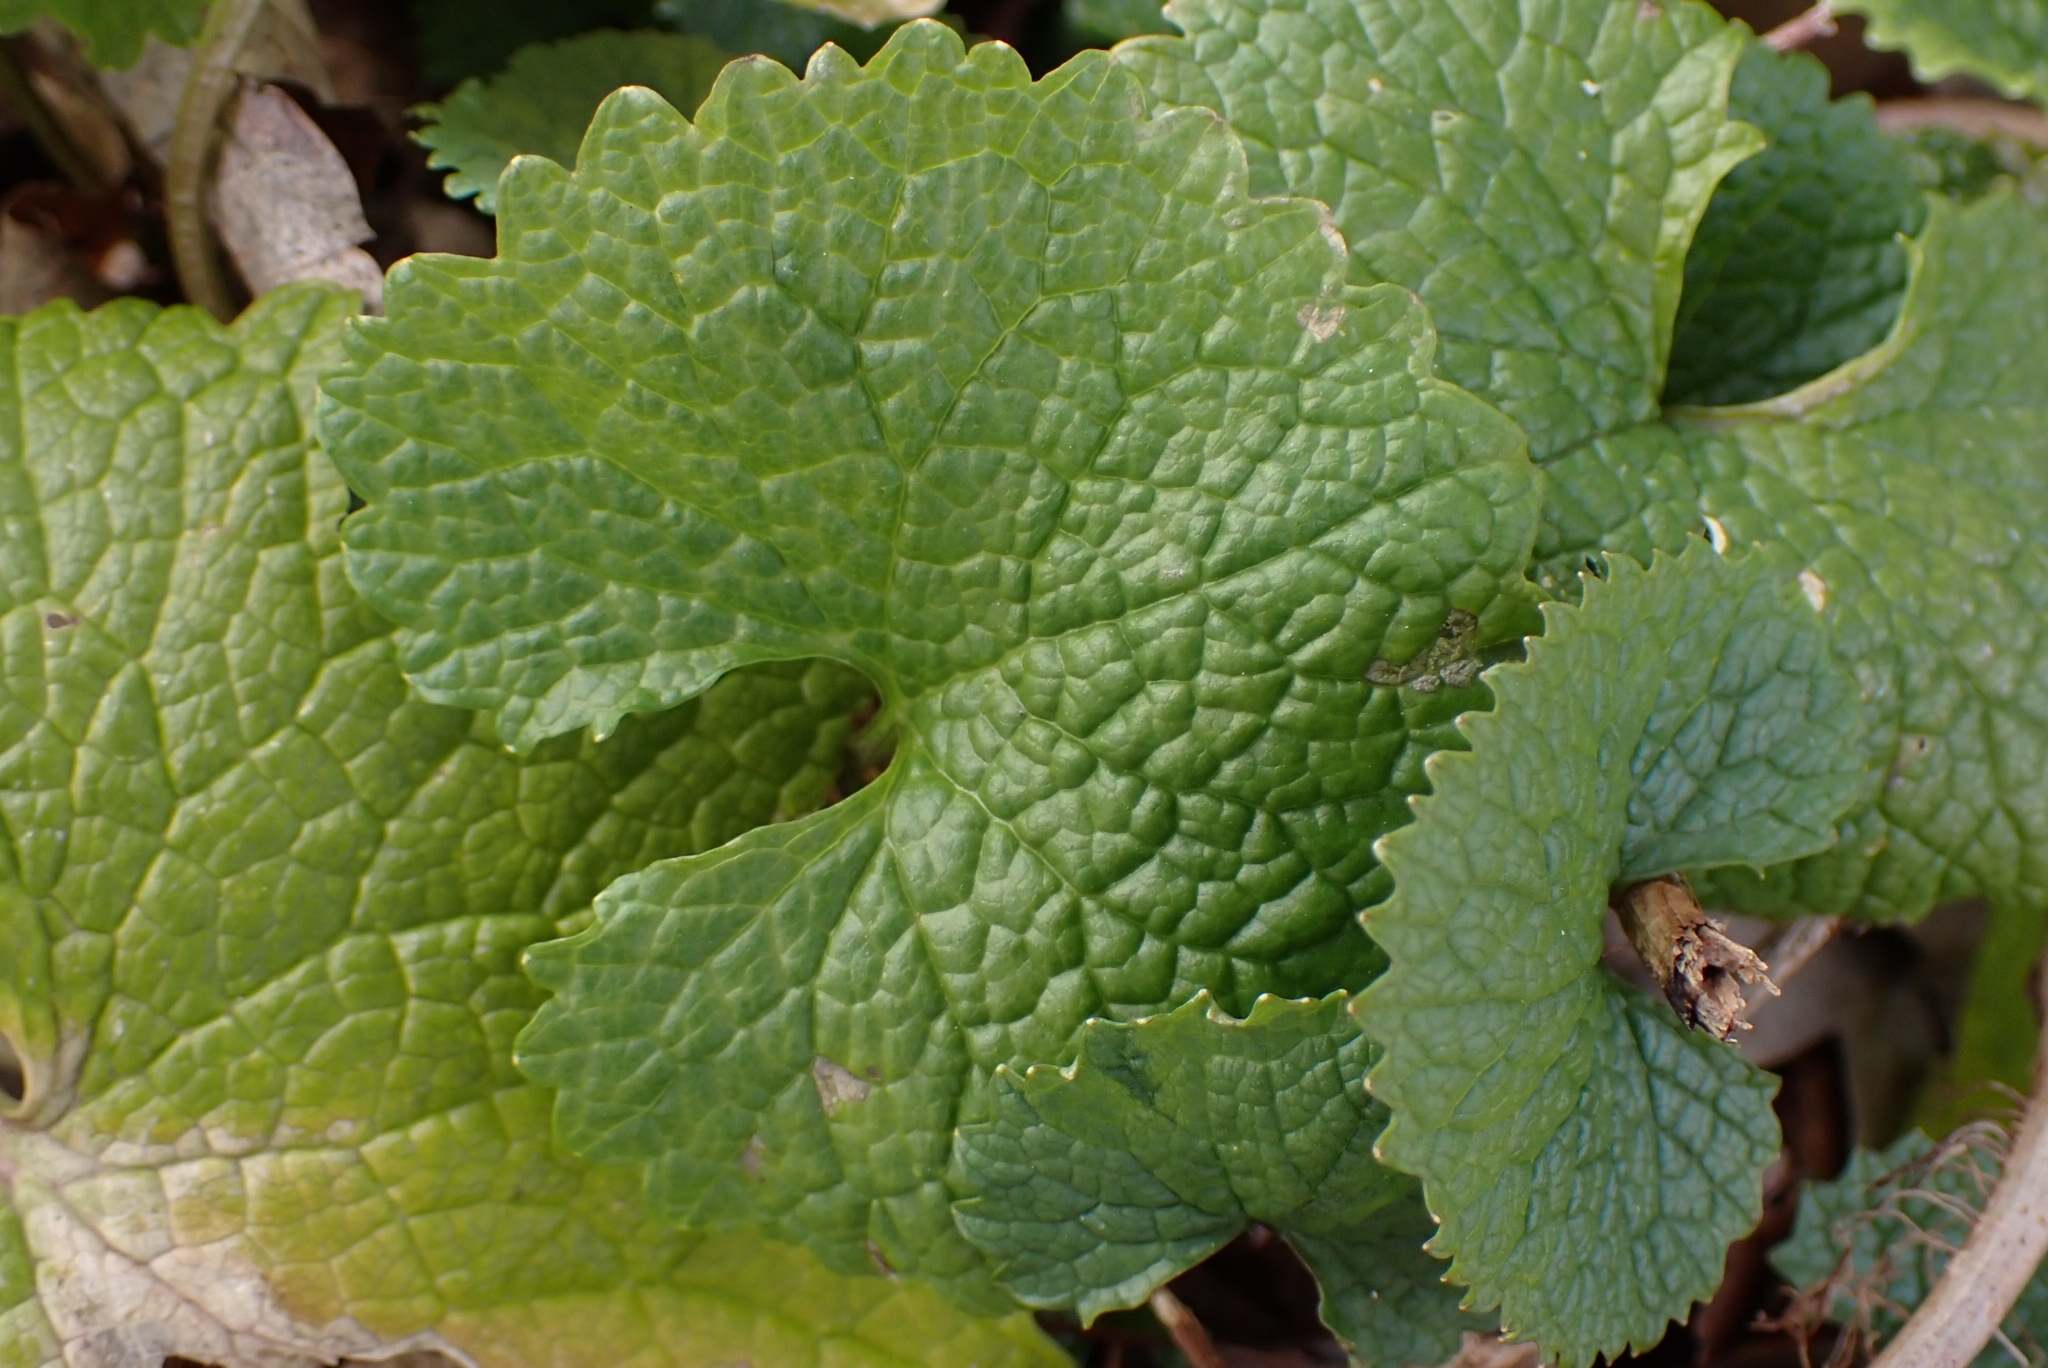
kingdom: Plantae
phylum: Tracheophyta
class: Magnoliopsida
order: Brassicales
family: Brassicaceae
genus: Alliaria
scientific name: Alliaria petiolata
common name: Garlic mustard
